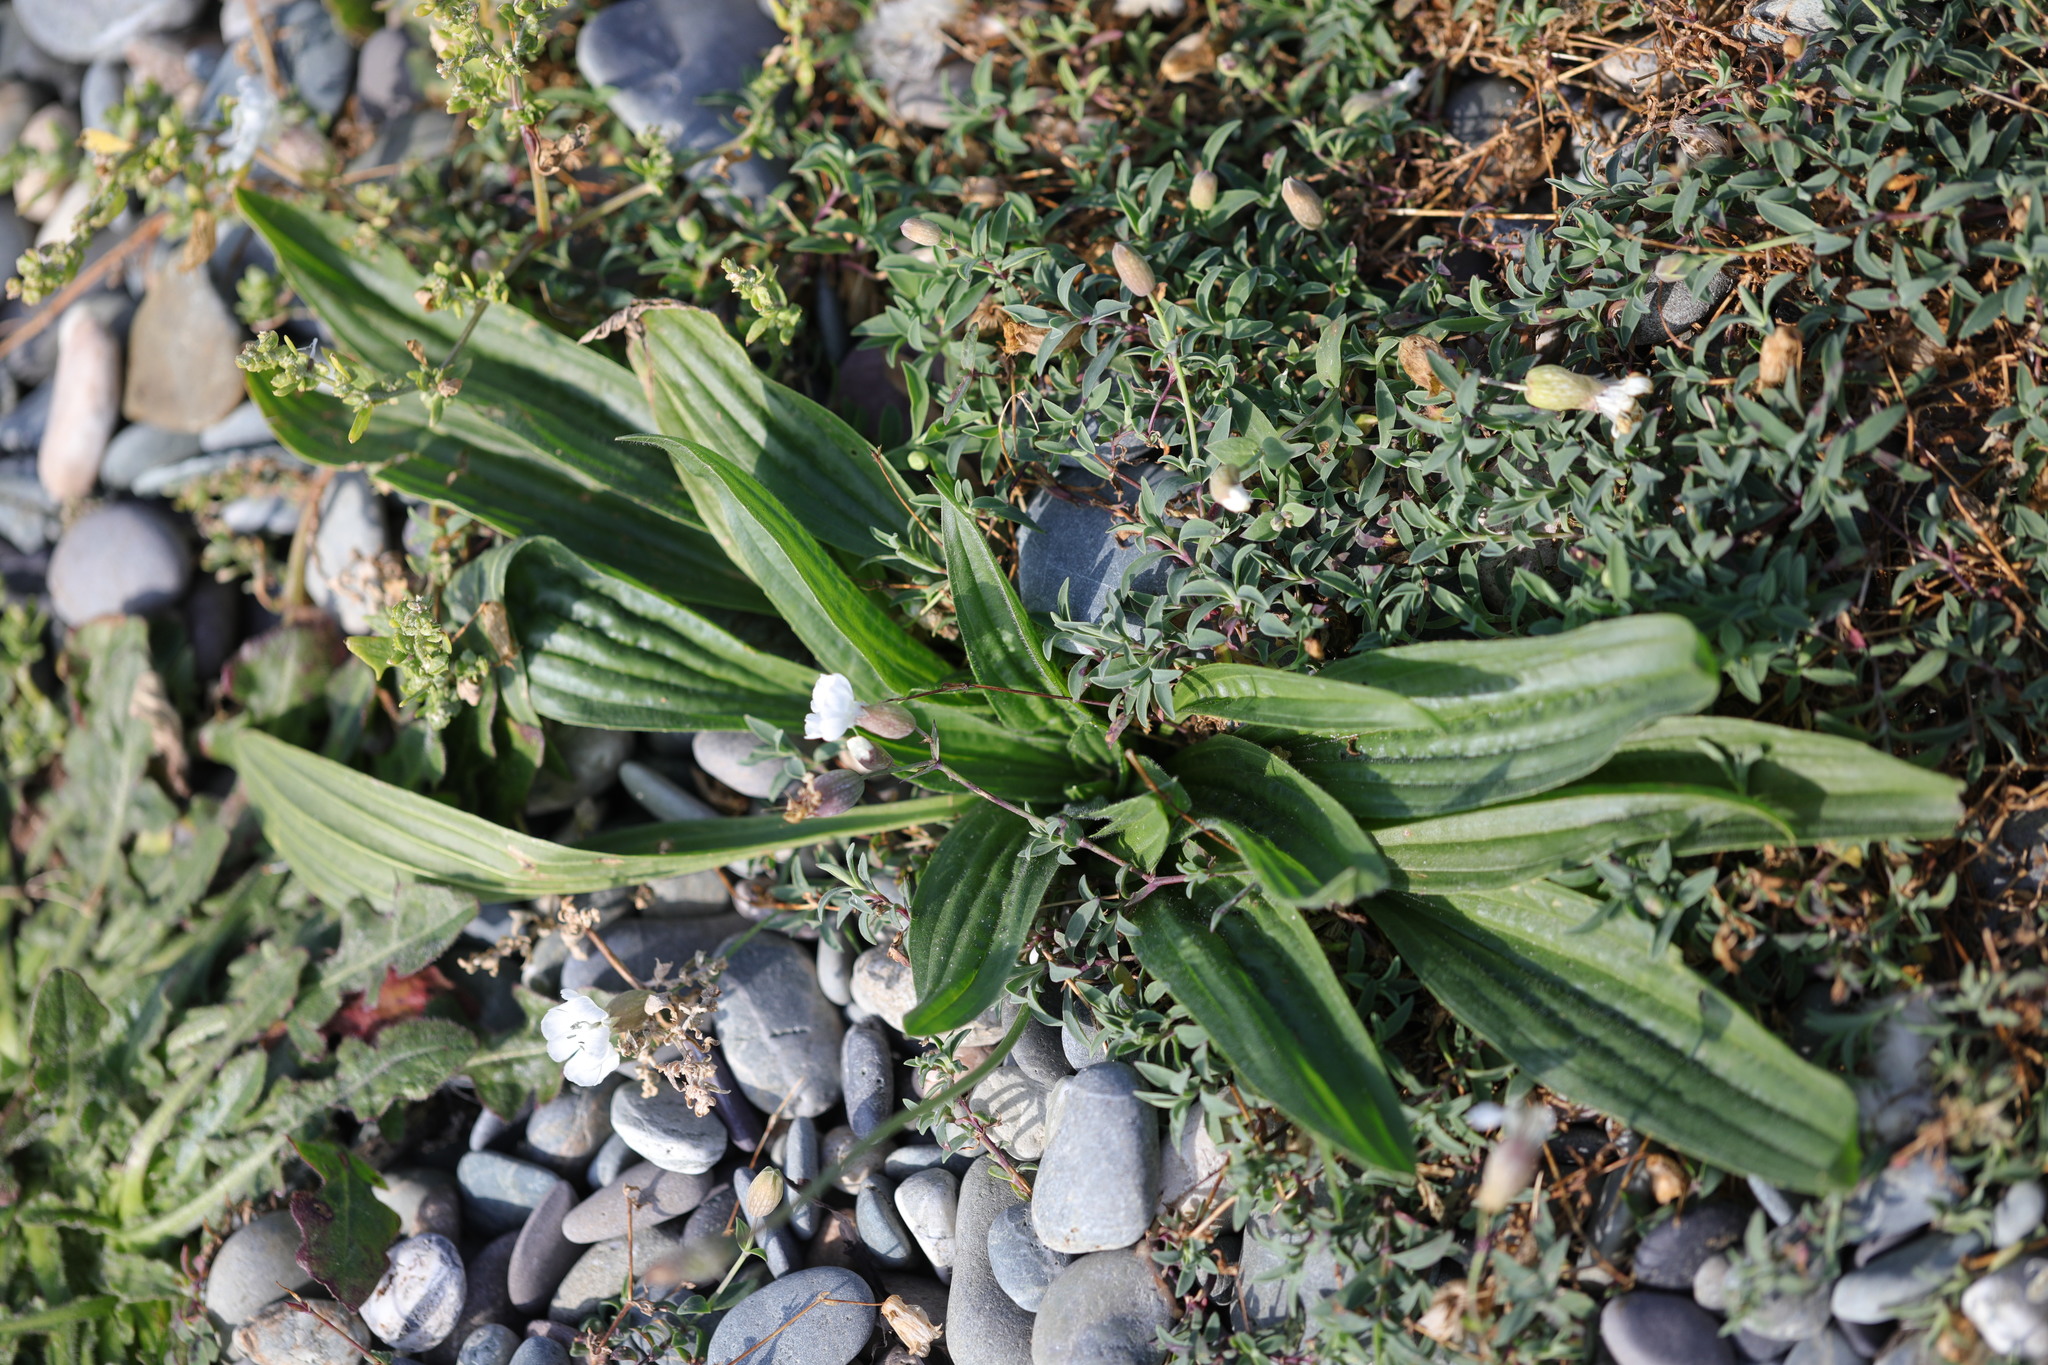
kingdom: Plantae
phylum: Tracheophyta
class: Magnoliopsida
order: Lamiales
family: Plantaginaceae
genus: Plantago
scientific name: Plantago lanceolata
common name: Ribwort plantain
